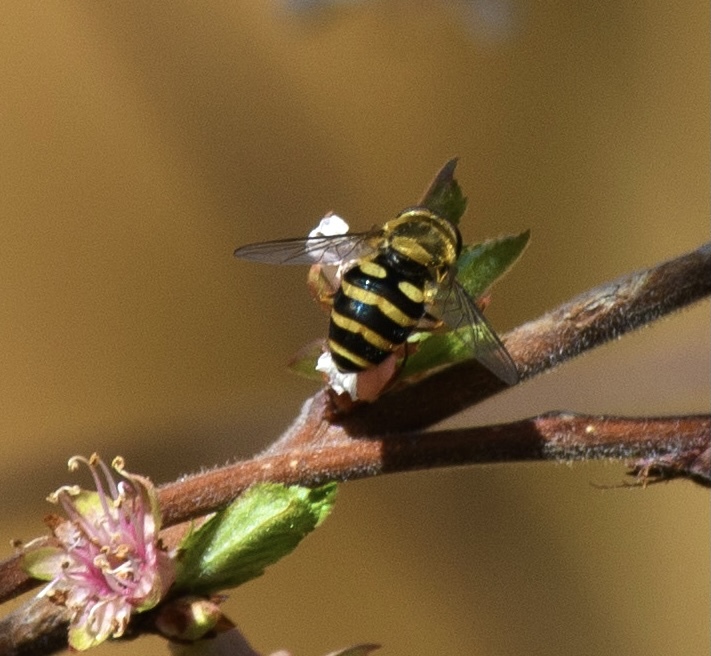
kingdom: Animalia
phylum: Arthropoda
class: Insecta
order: Diptera
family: Syrphidae
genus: Syrphus
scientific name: Syrphus
